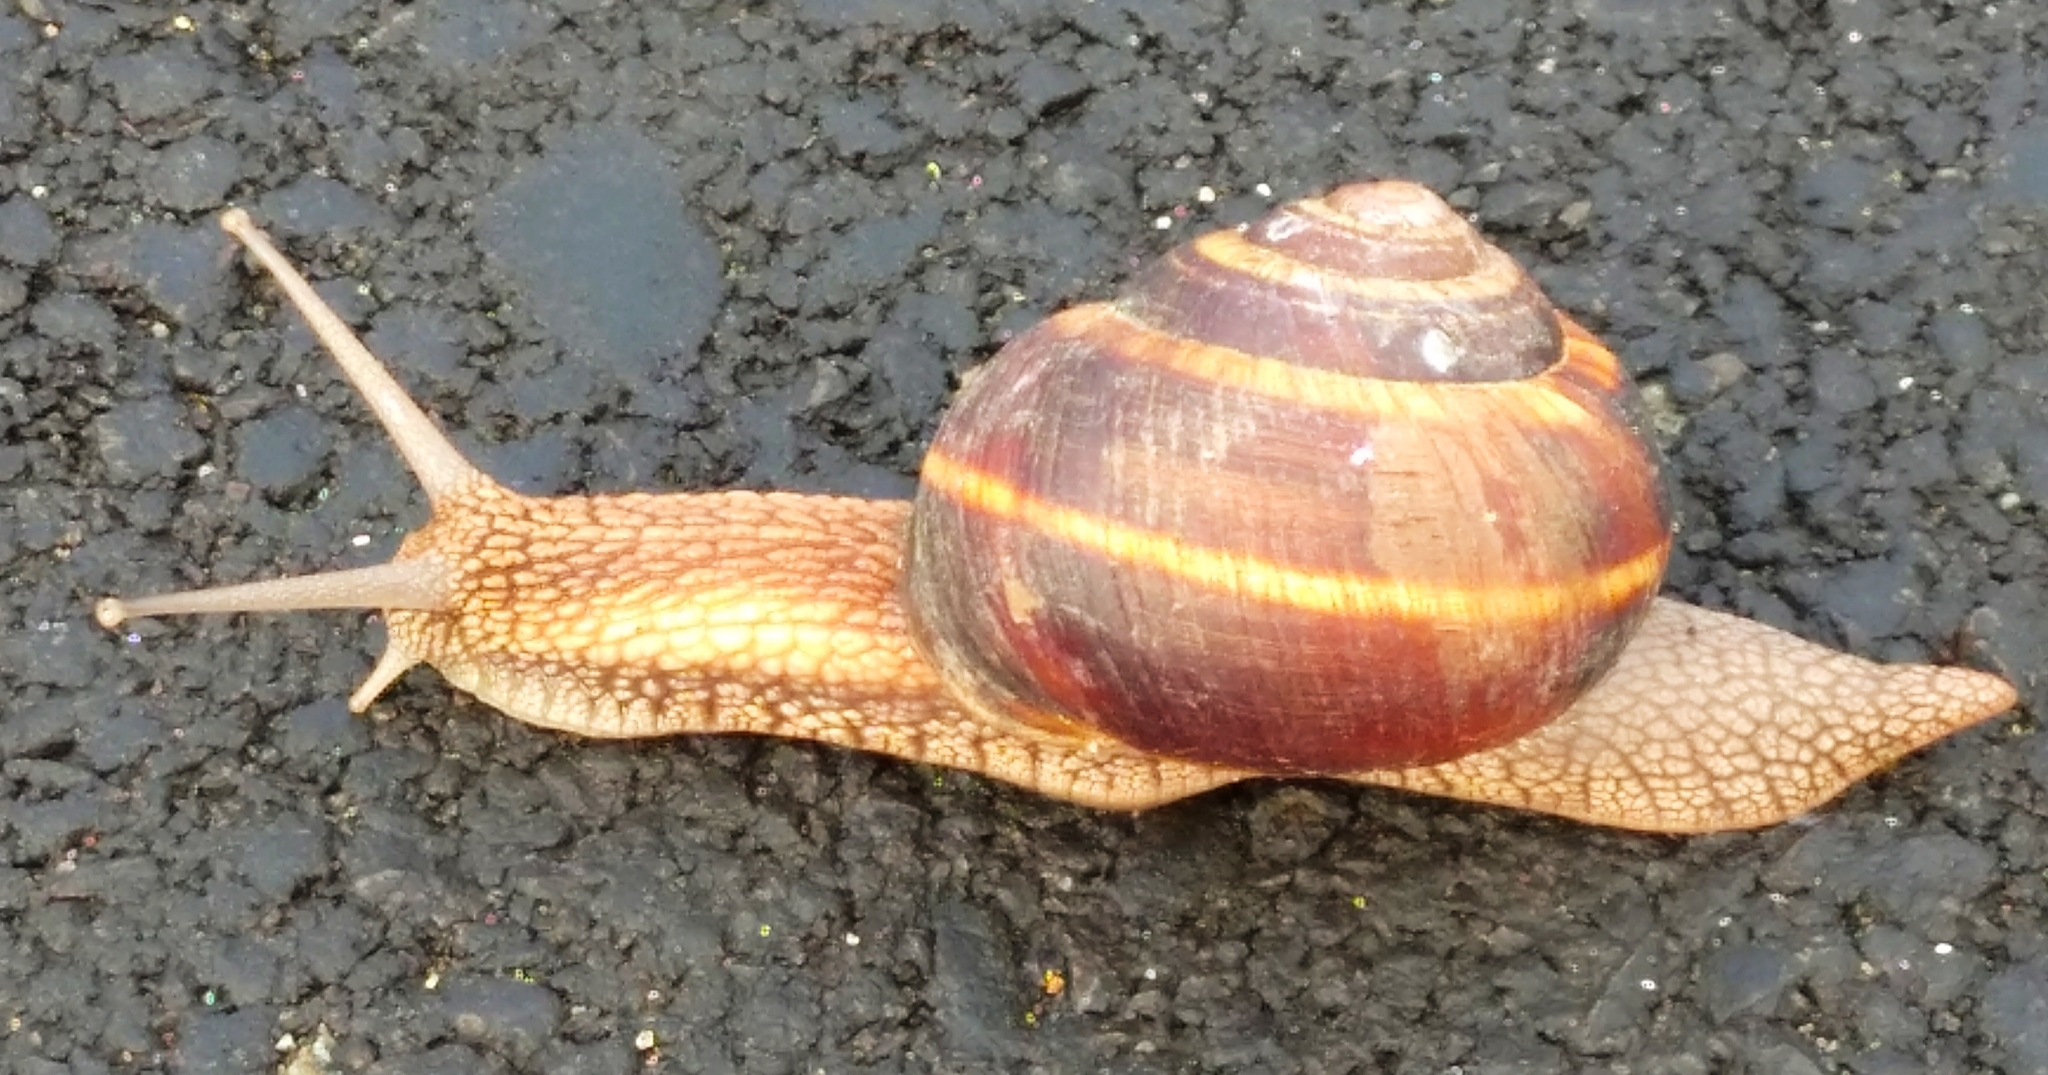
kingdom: Animalia
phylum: Mollusca
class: Gastropoda
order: Stylommatophora
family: Helicidae
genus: Helix
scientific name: Helix lucorum
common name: Turkish snail
